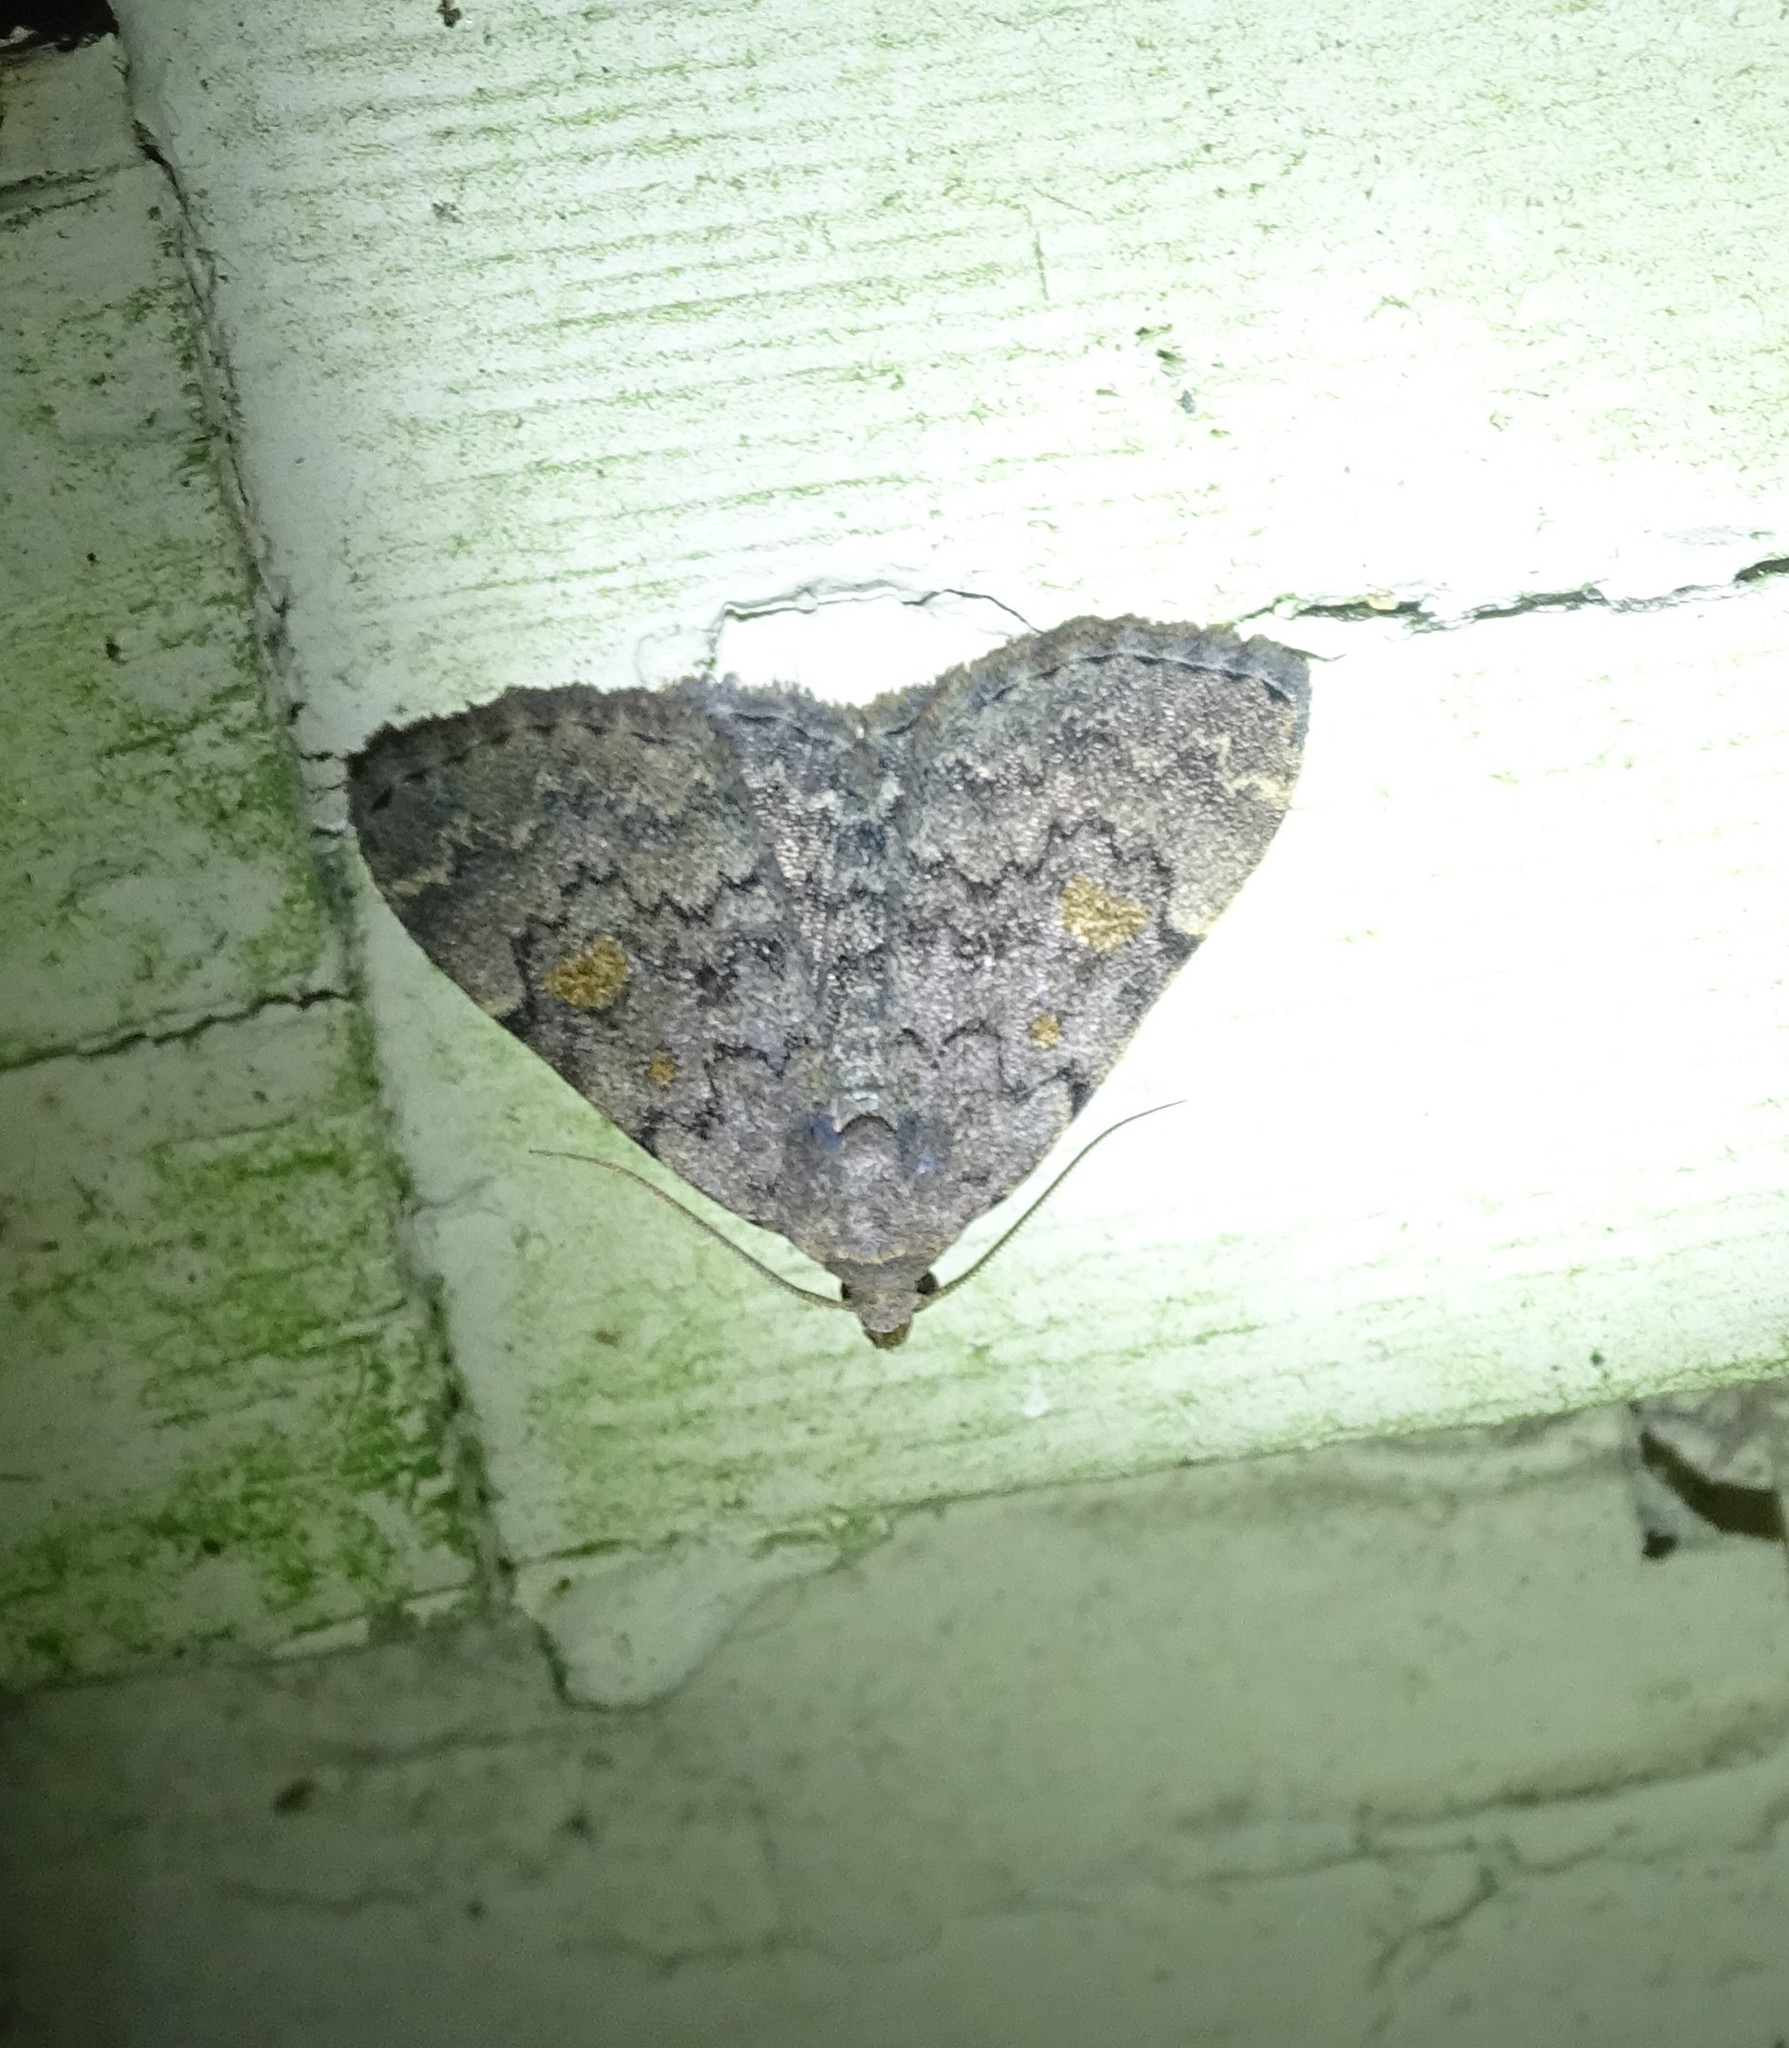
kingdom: Animalia
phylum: Arthropoda
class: Insecta
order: Lepidoptera
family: Erebidae
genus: Idia
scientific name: Idia aemula
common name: Common idia moth
